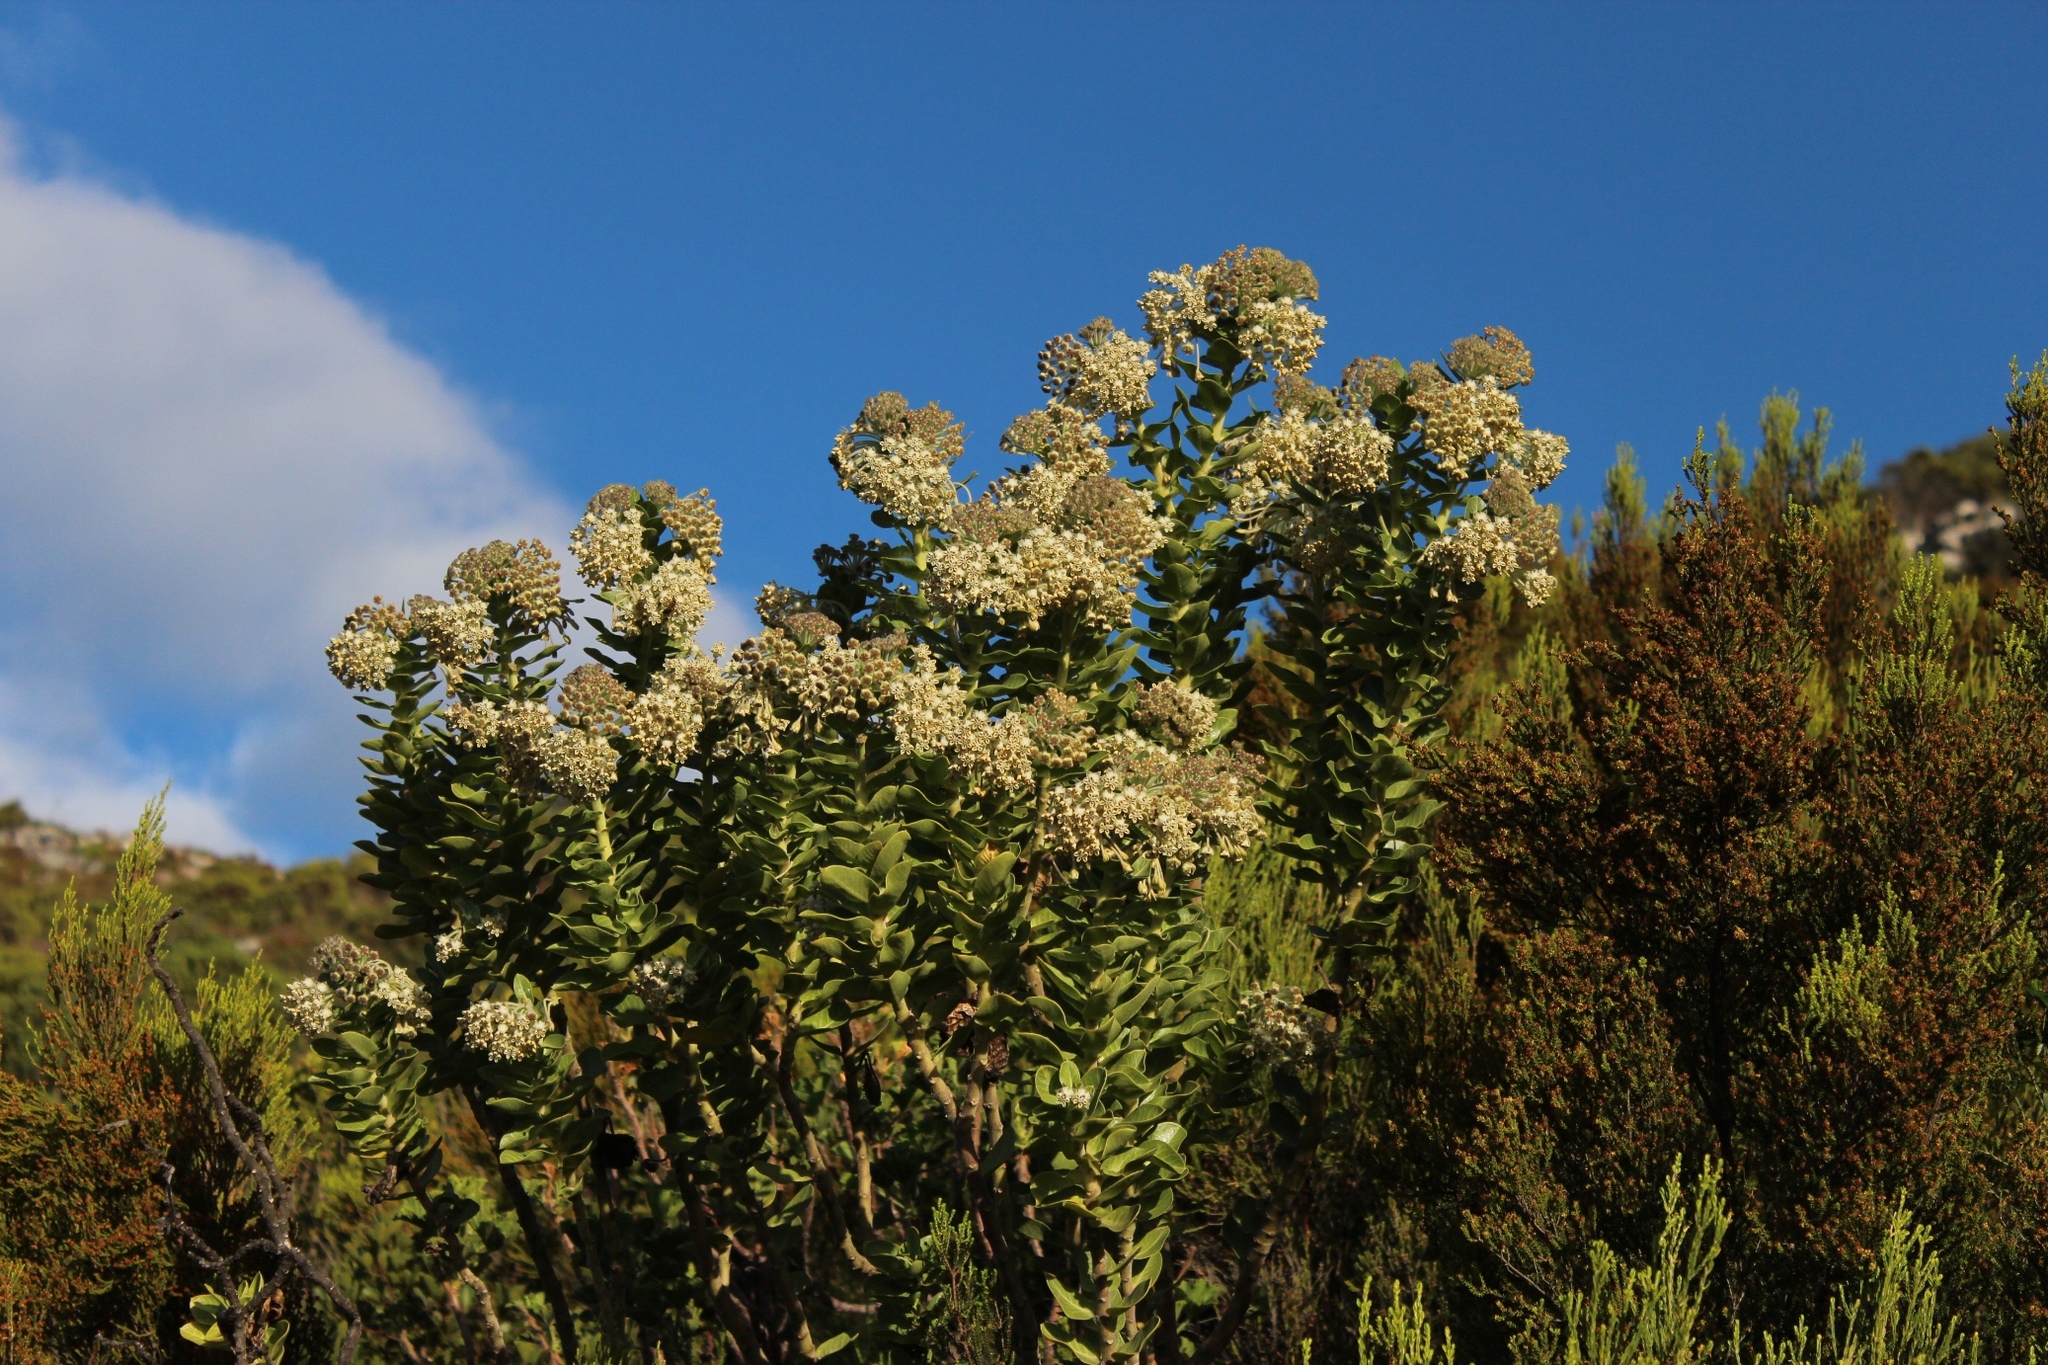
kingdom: Plantae
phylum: Tracheophyta
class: Magnoliopsida
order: Gentianales
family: Apocynaceae
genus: Gomphocarpus
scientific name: Gomphocarpus cancellatus
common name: Wild cotton
